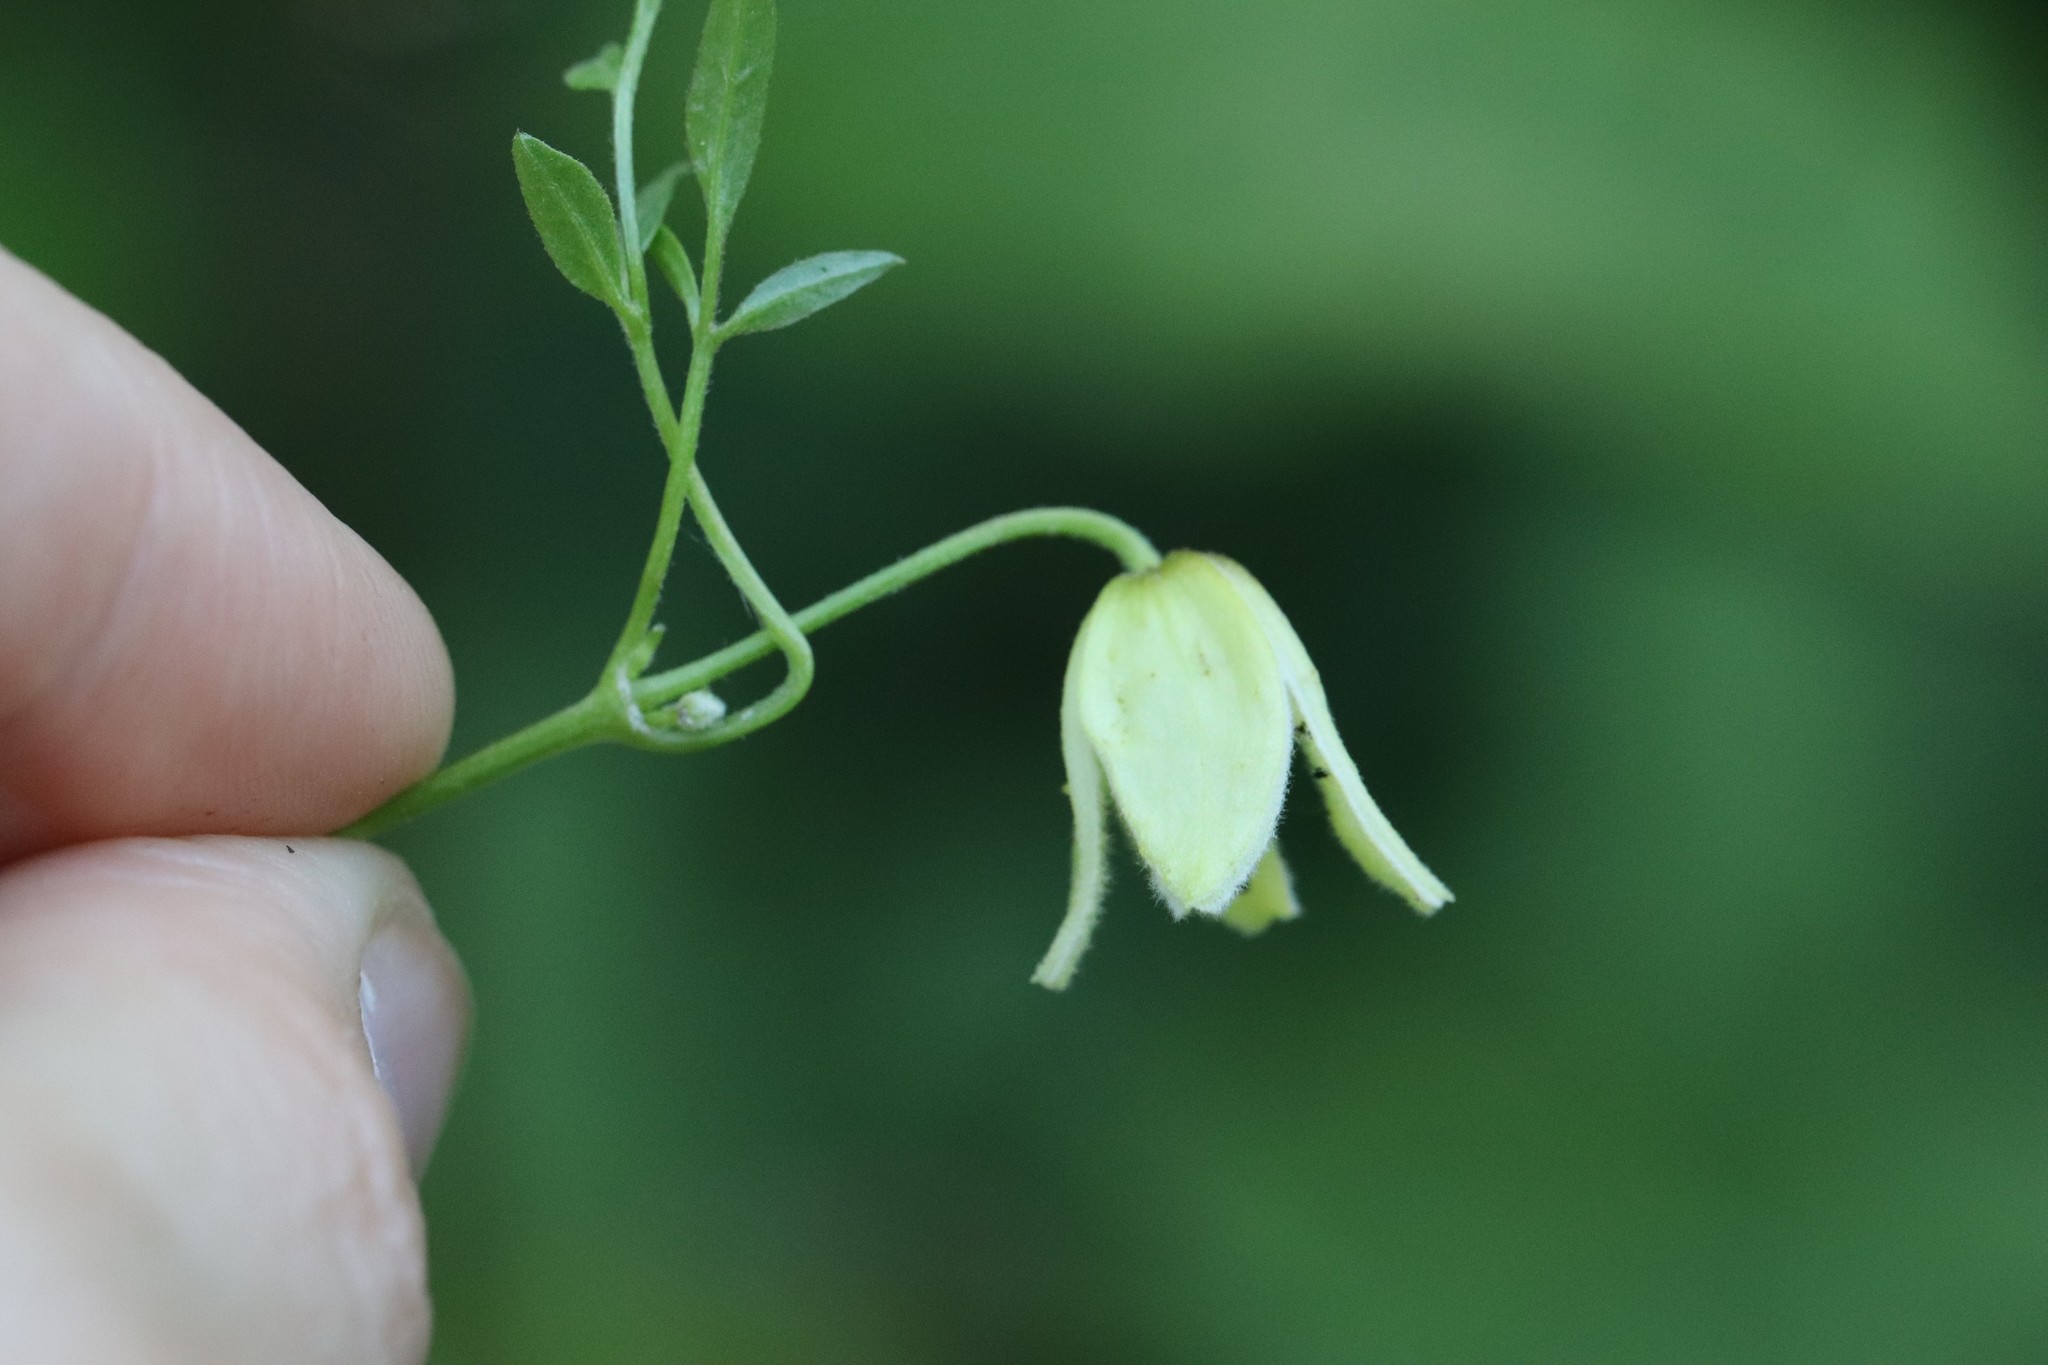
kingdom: Plantae
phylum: Tracheophyta
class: Magnoliopsida
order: Ranunculales
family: Ranunculaceae
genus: Clematis
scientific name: Clematis serratifolia
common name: Korean clematis
